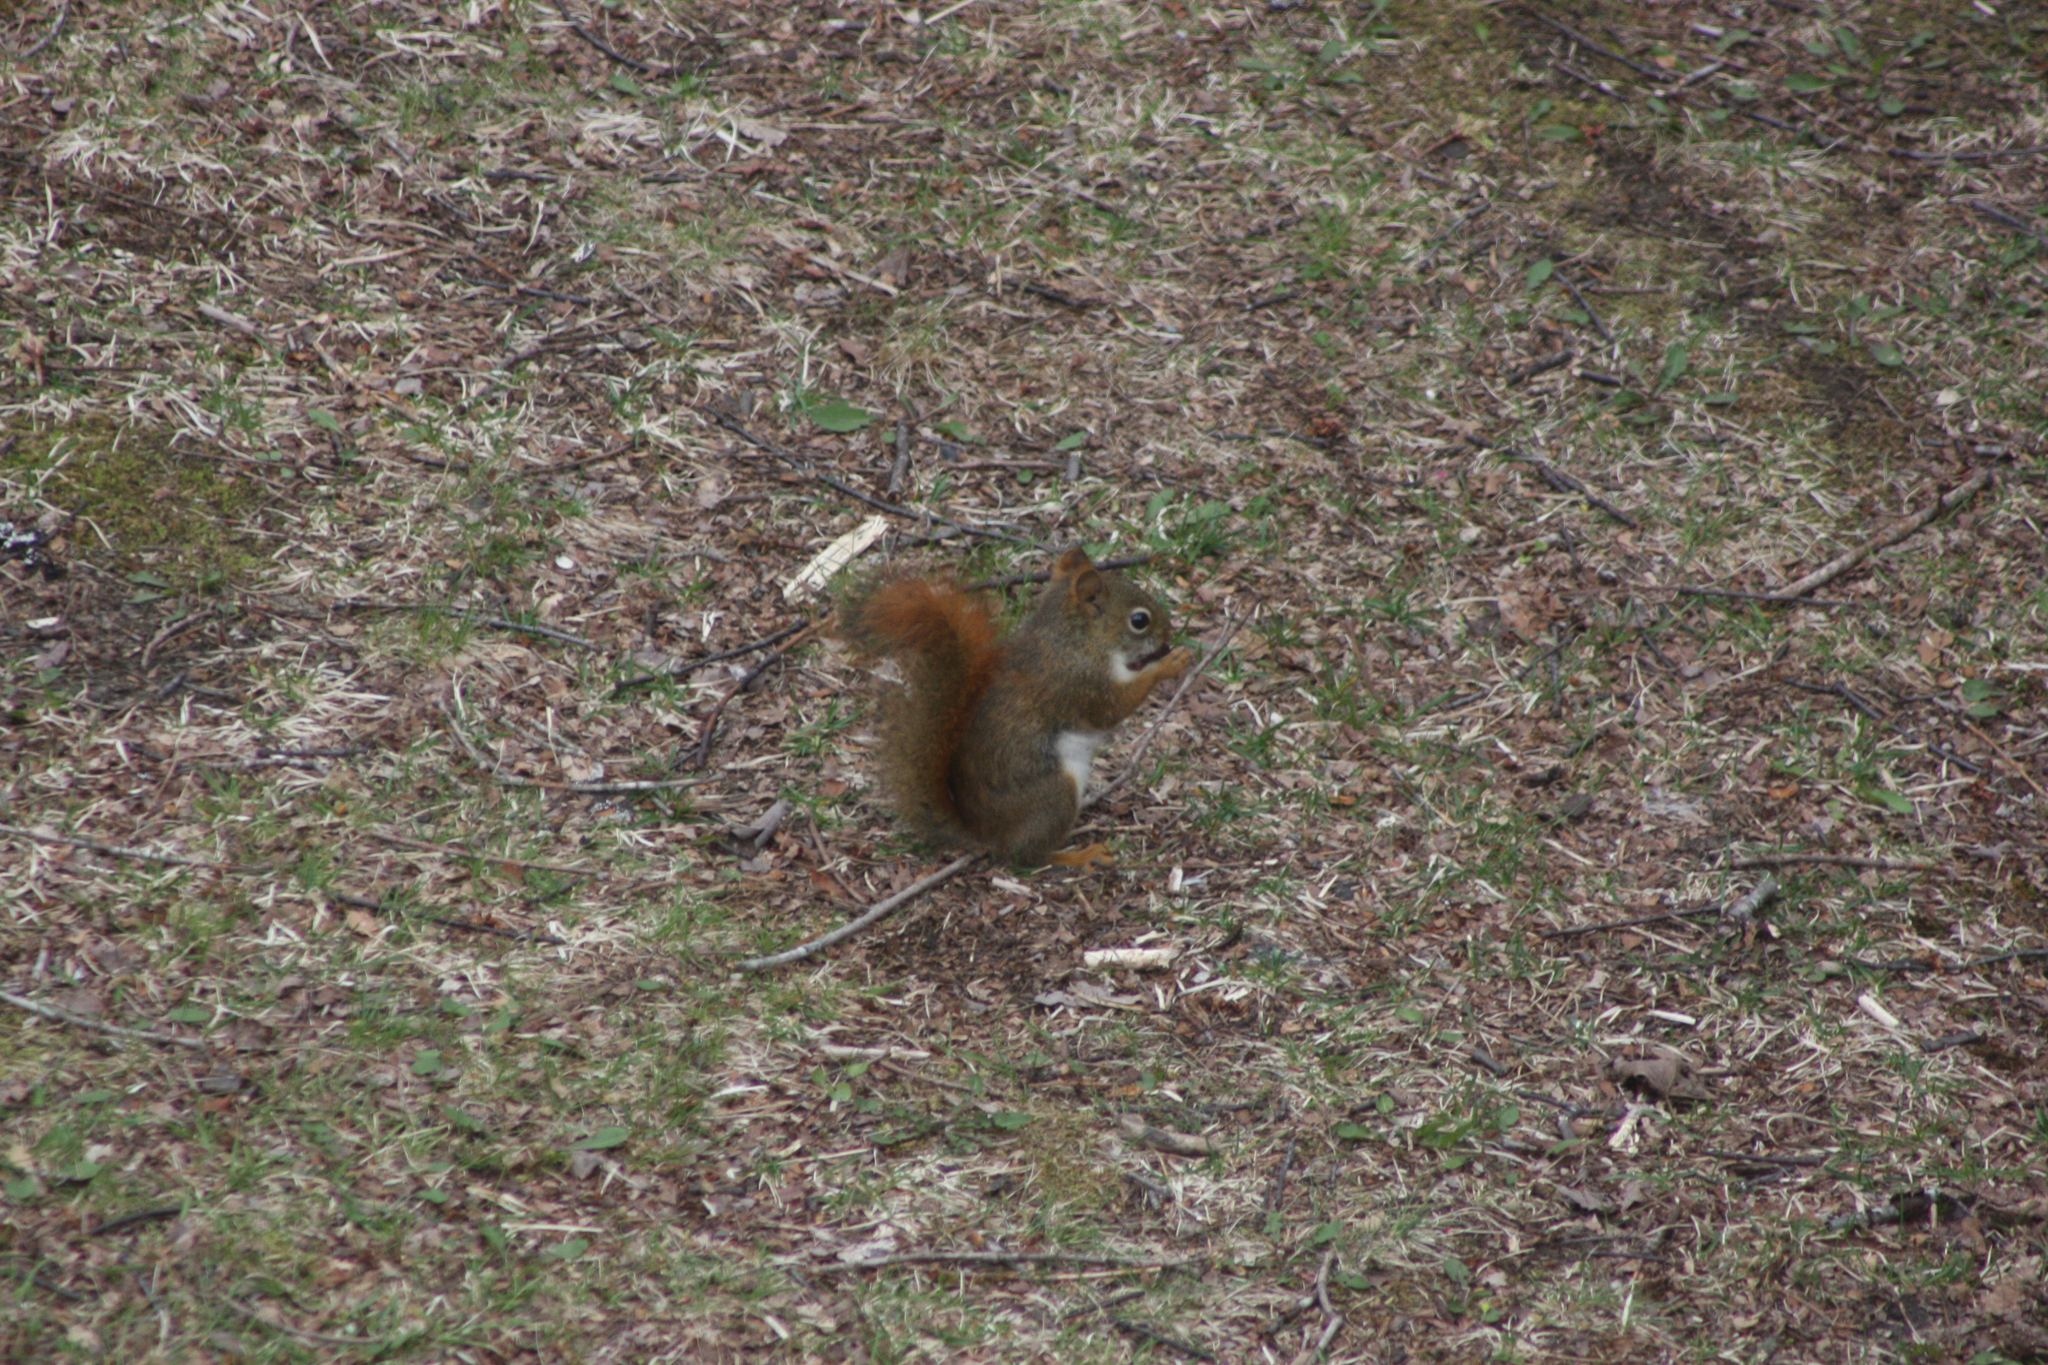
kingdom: Animalia
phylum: Chordata
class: Mammalia
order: Rodentia
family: Sciuridae
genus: Tamiasciurus
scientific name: Tamiasciurus hudsonicus
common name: Red squirrel
